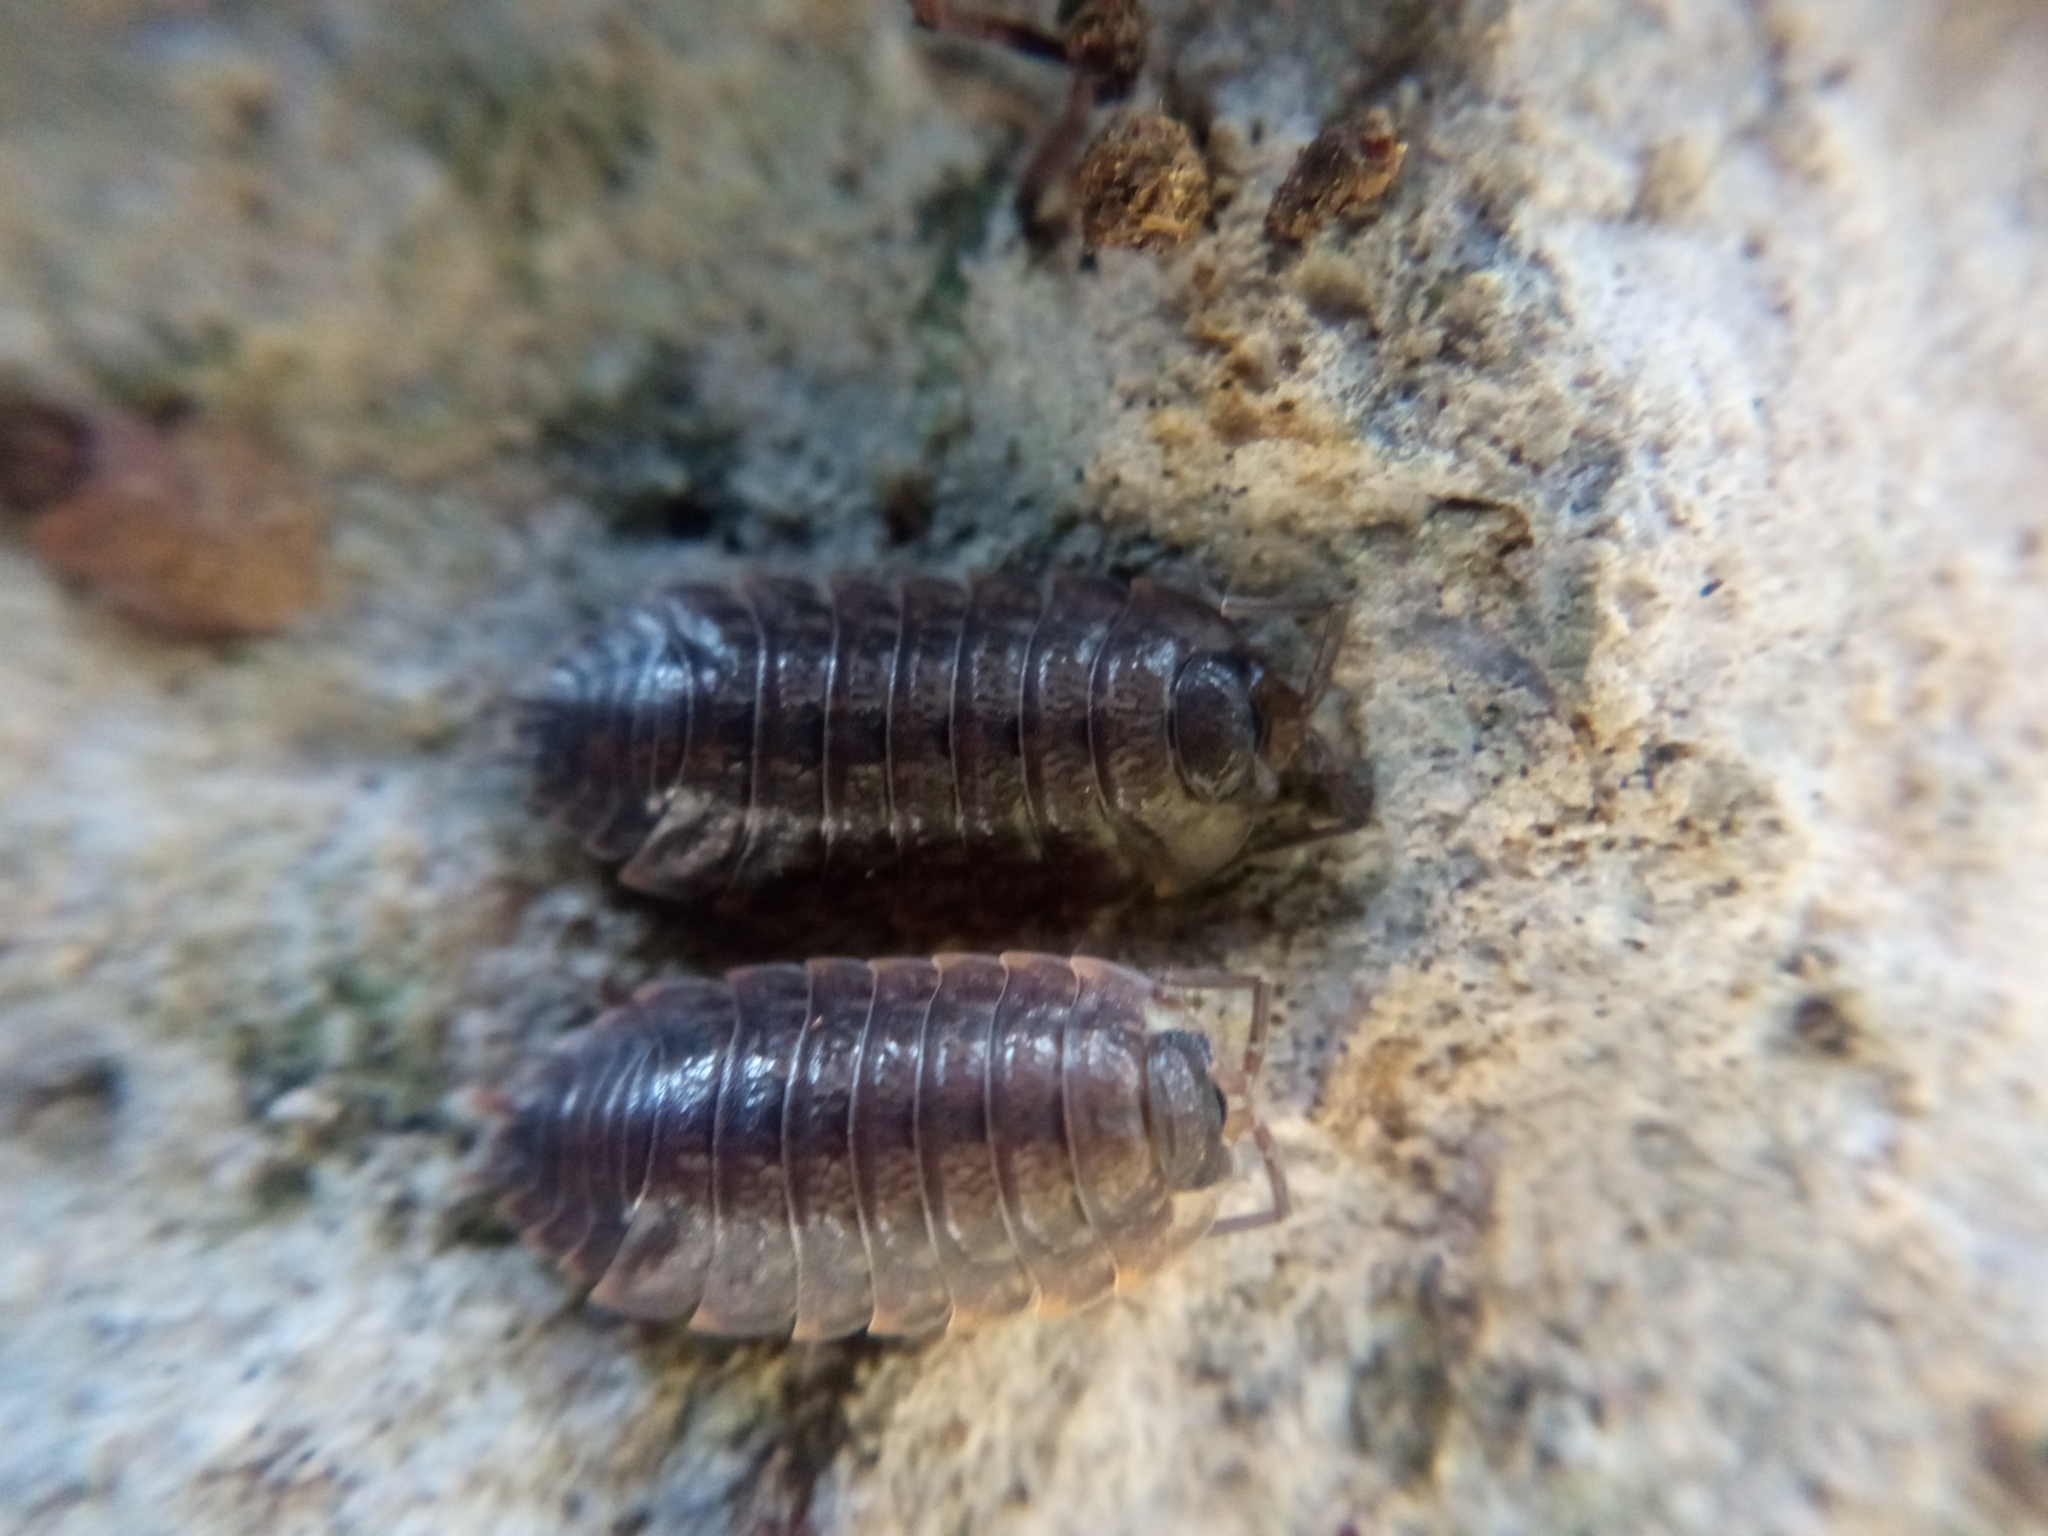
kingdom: Animalia
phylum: Arthropoda
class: Malacostraca
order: Isopoda
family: Porcellionidae
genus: Porcellio
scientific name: Porcellio montanus
